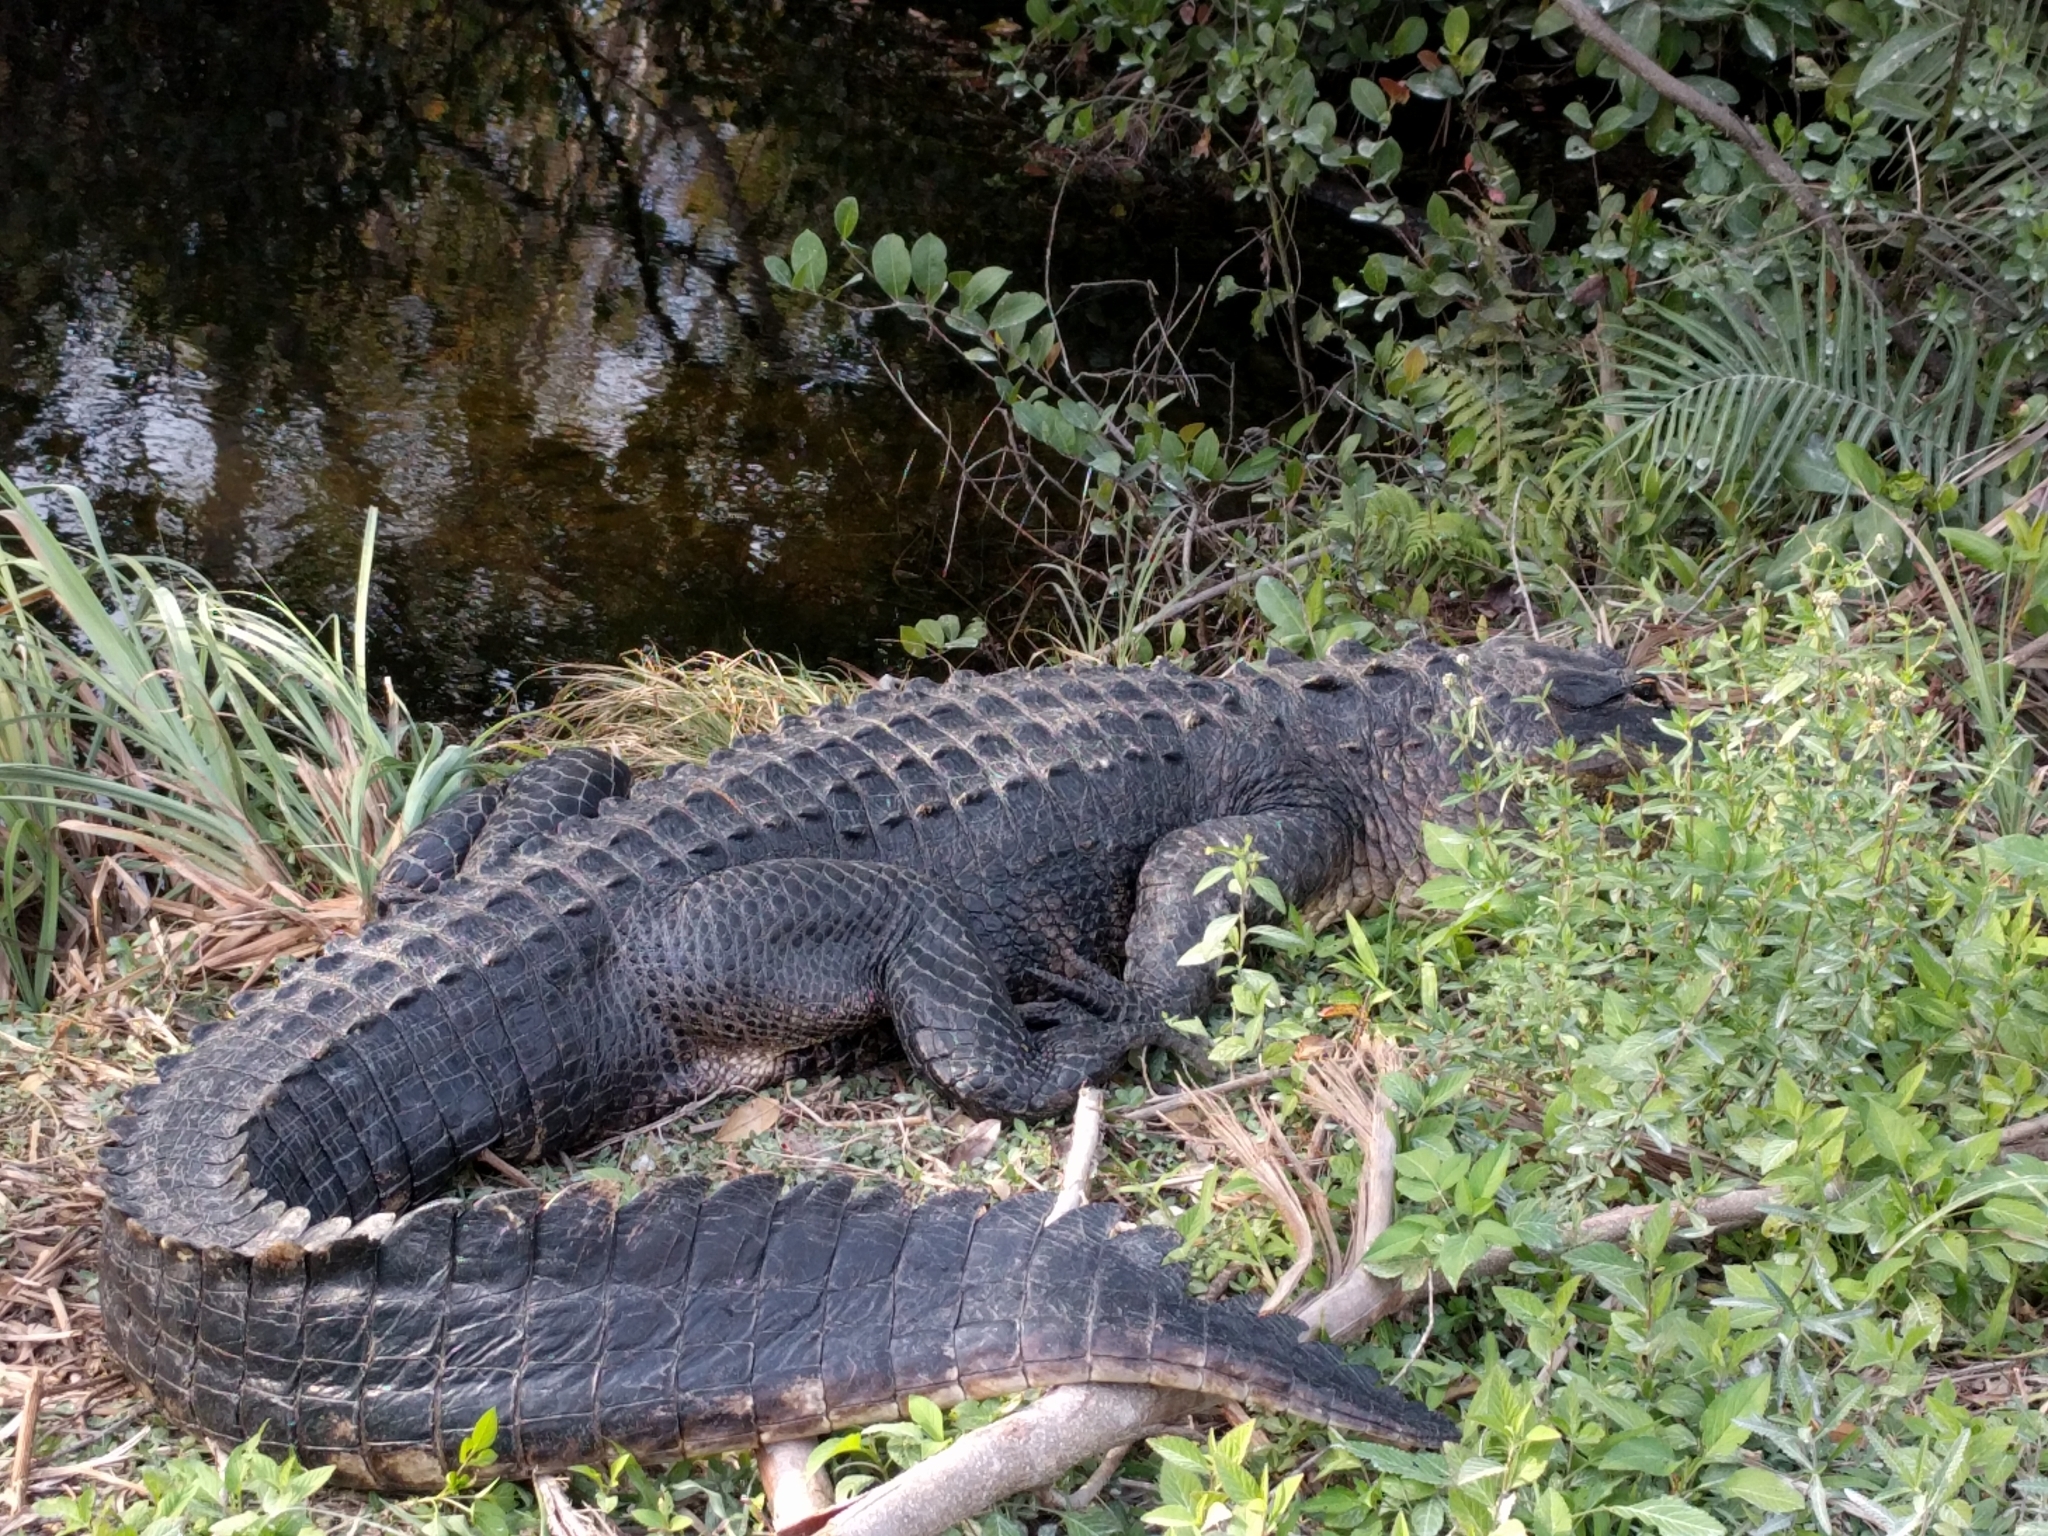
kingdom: Animalia
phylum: Chordata
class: Crocodylia
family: Alligatoridae
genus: Alligator
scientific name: Alligator mississippiensis
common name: American alligator
